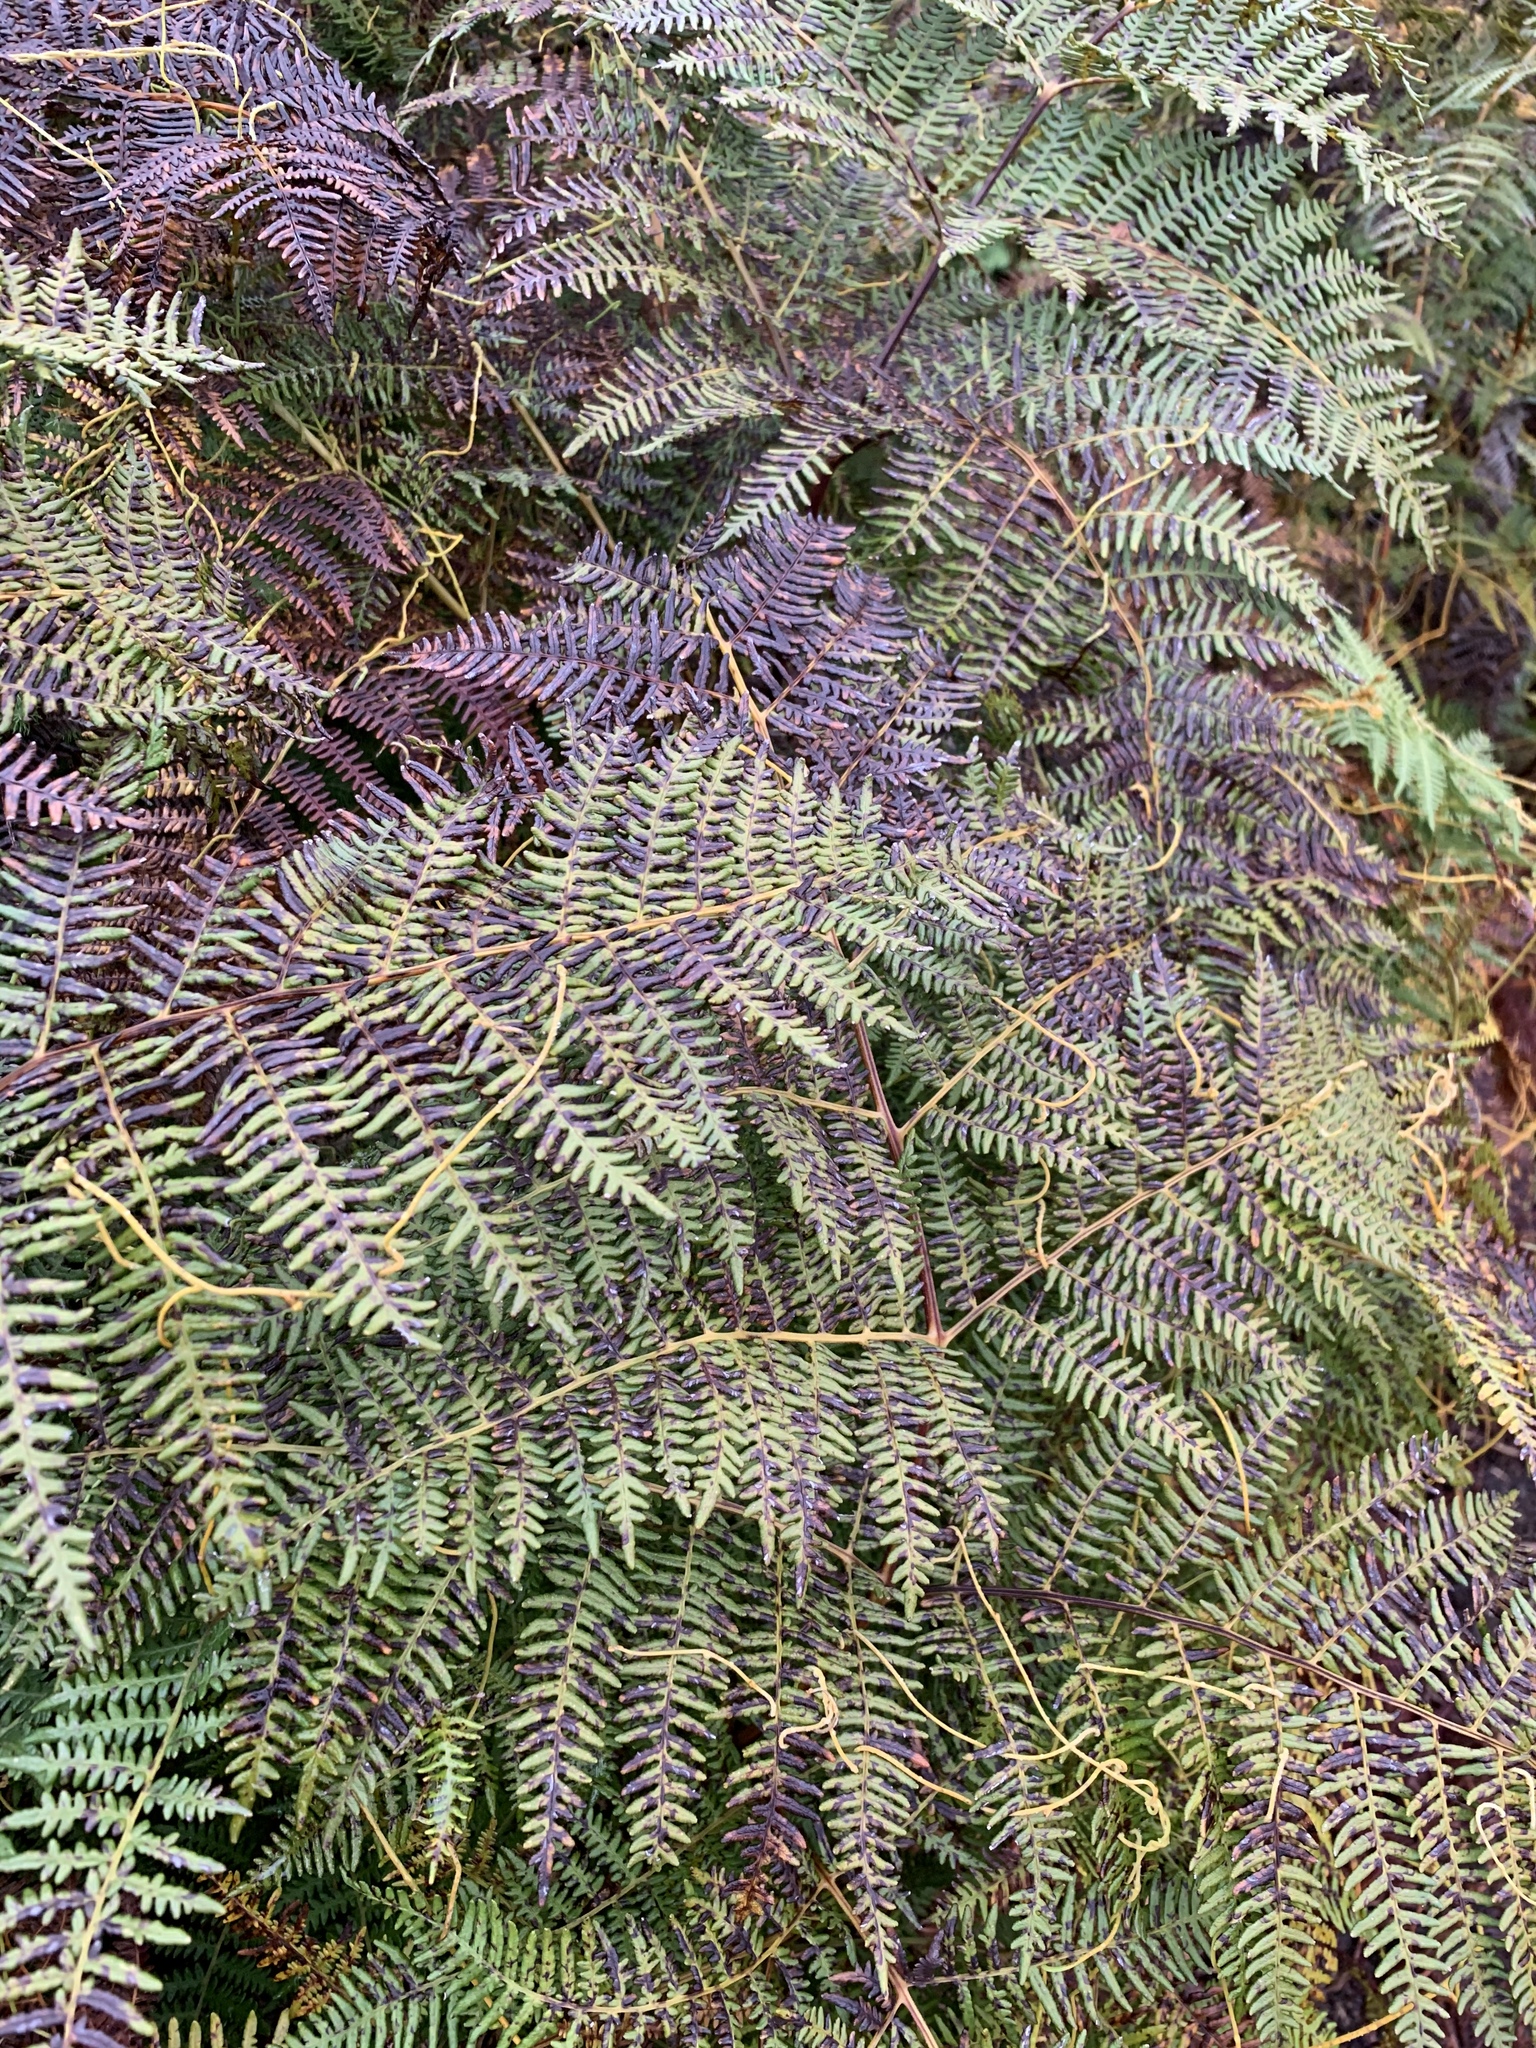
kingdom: Plantae
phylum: Tracheophyta
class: Polypodiopsida
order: Polypodiales
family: Dennstaedtiaceae
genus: Pteridium
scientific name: Pteridium aquilinum
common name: Bracken
